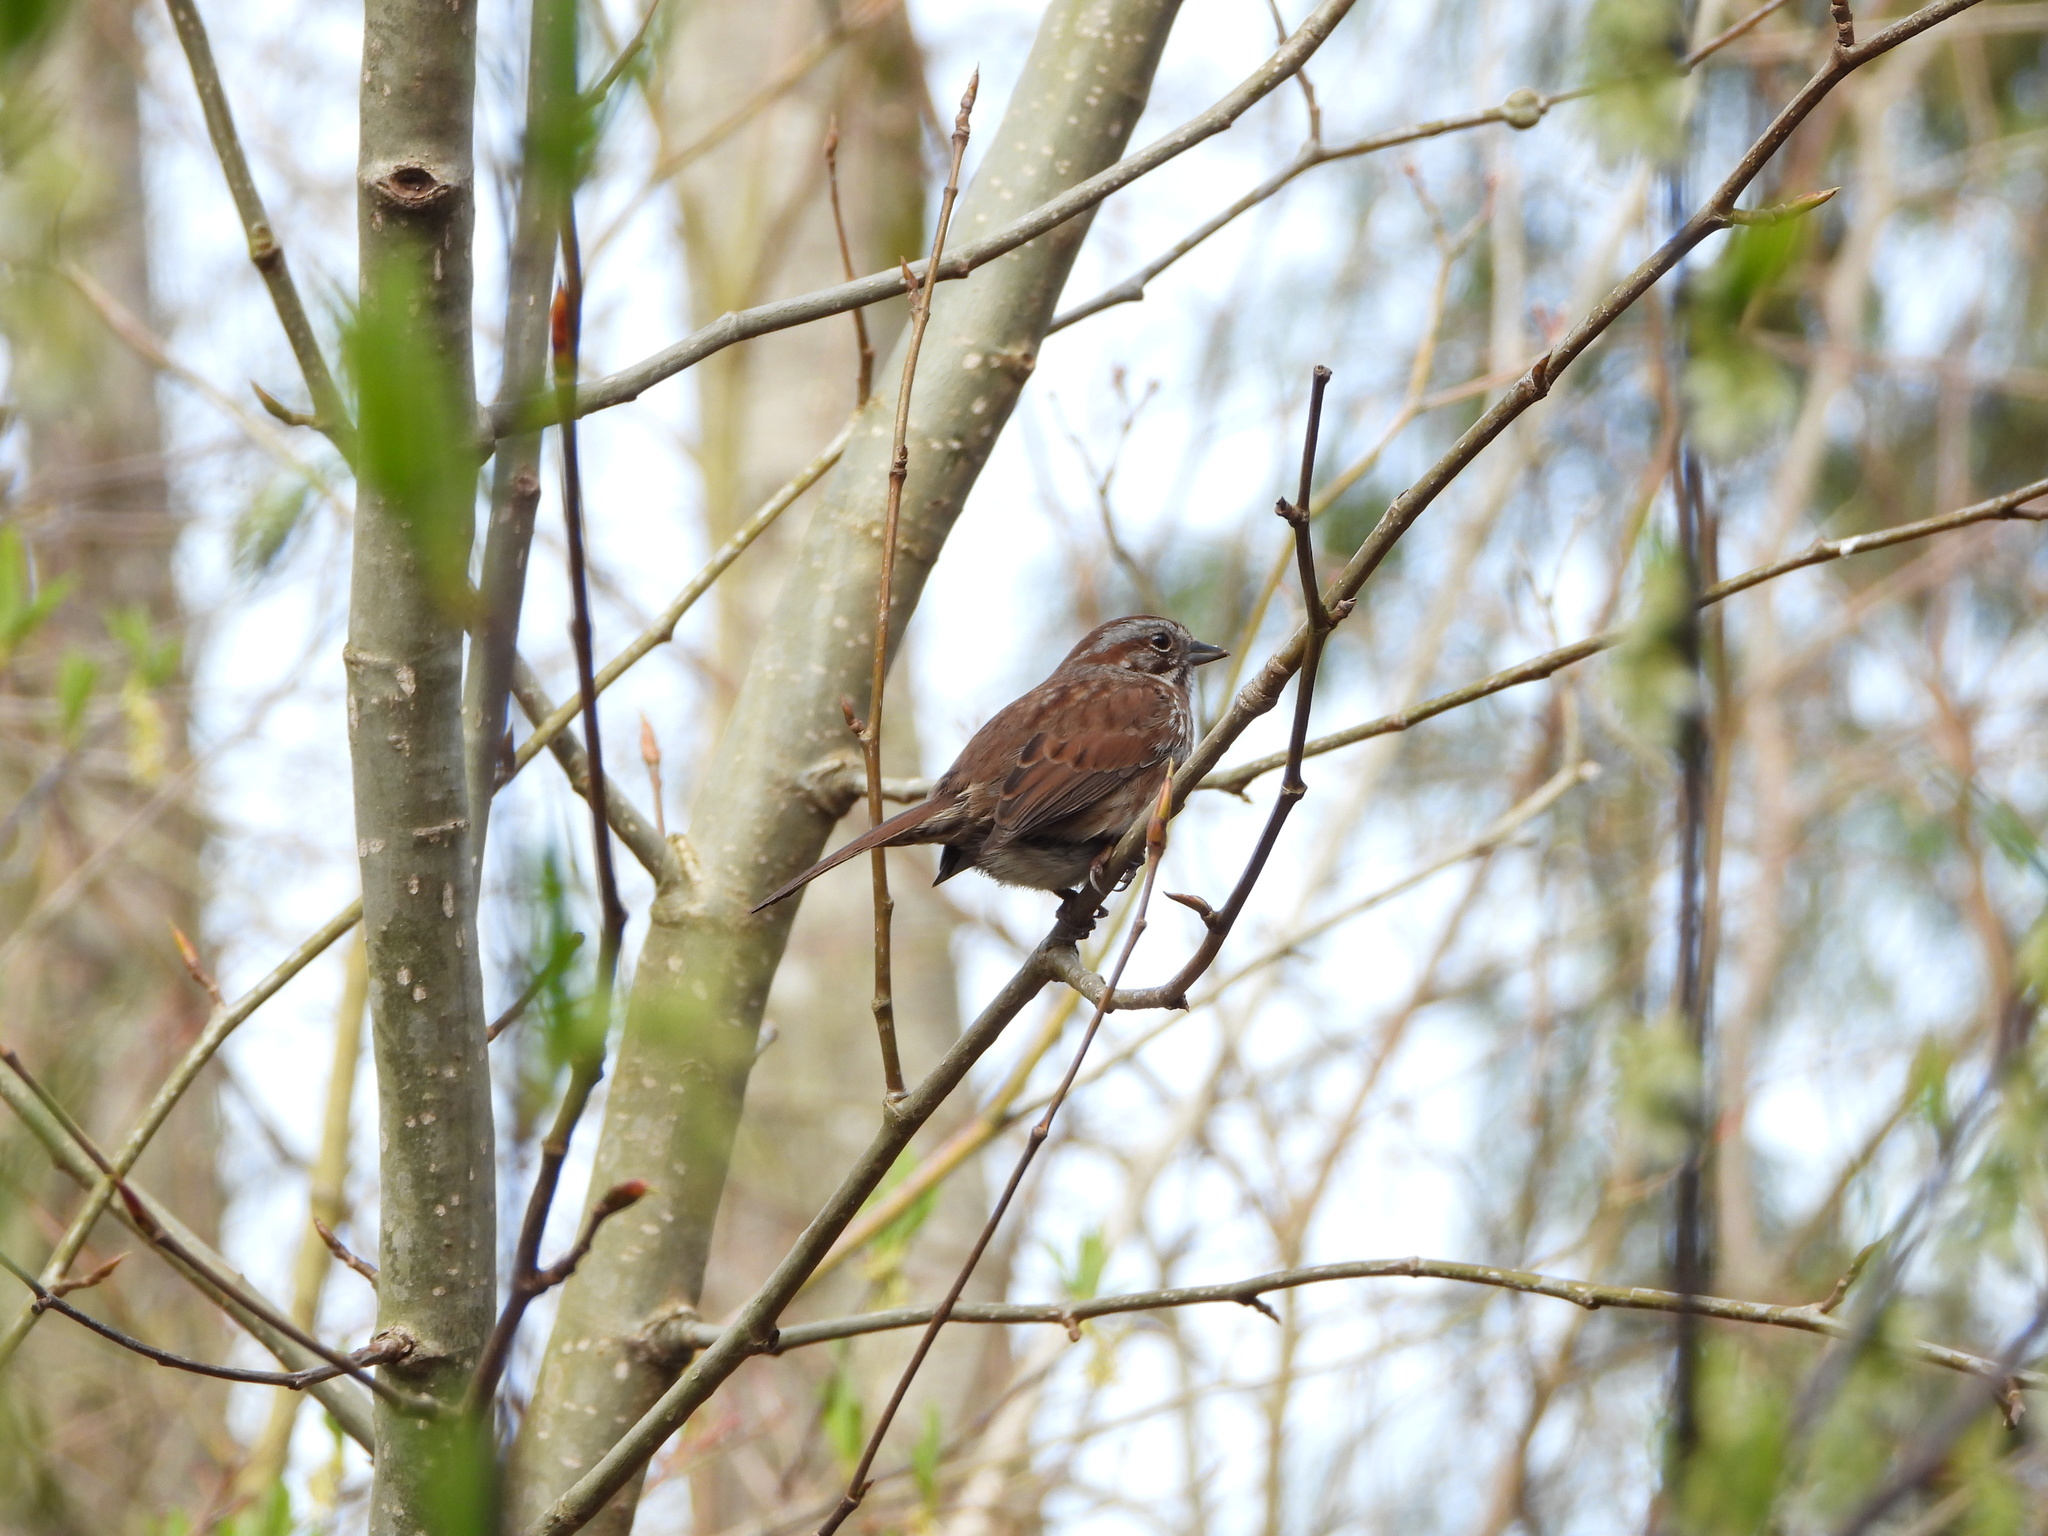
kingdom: Animalia
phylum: Chordata
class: Aves
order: Passeriformes
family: Passerellidae
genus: Melospiza
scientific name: Melospiza melodia
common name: Song sparrow
